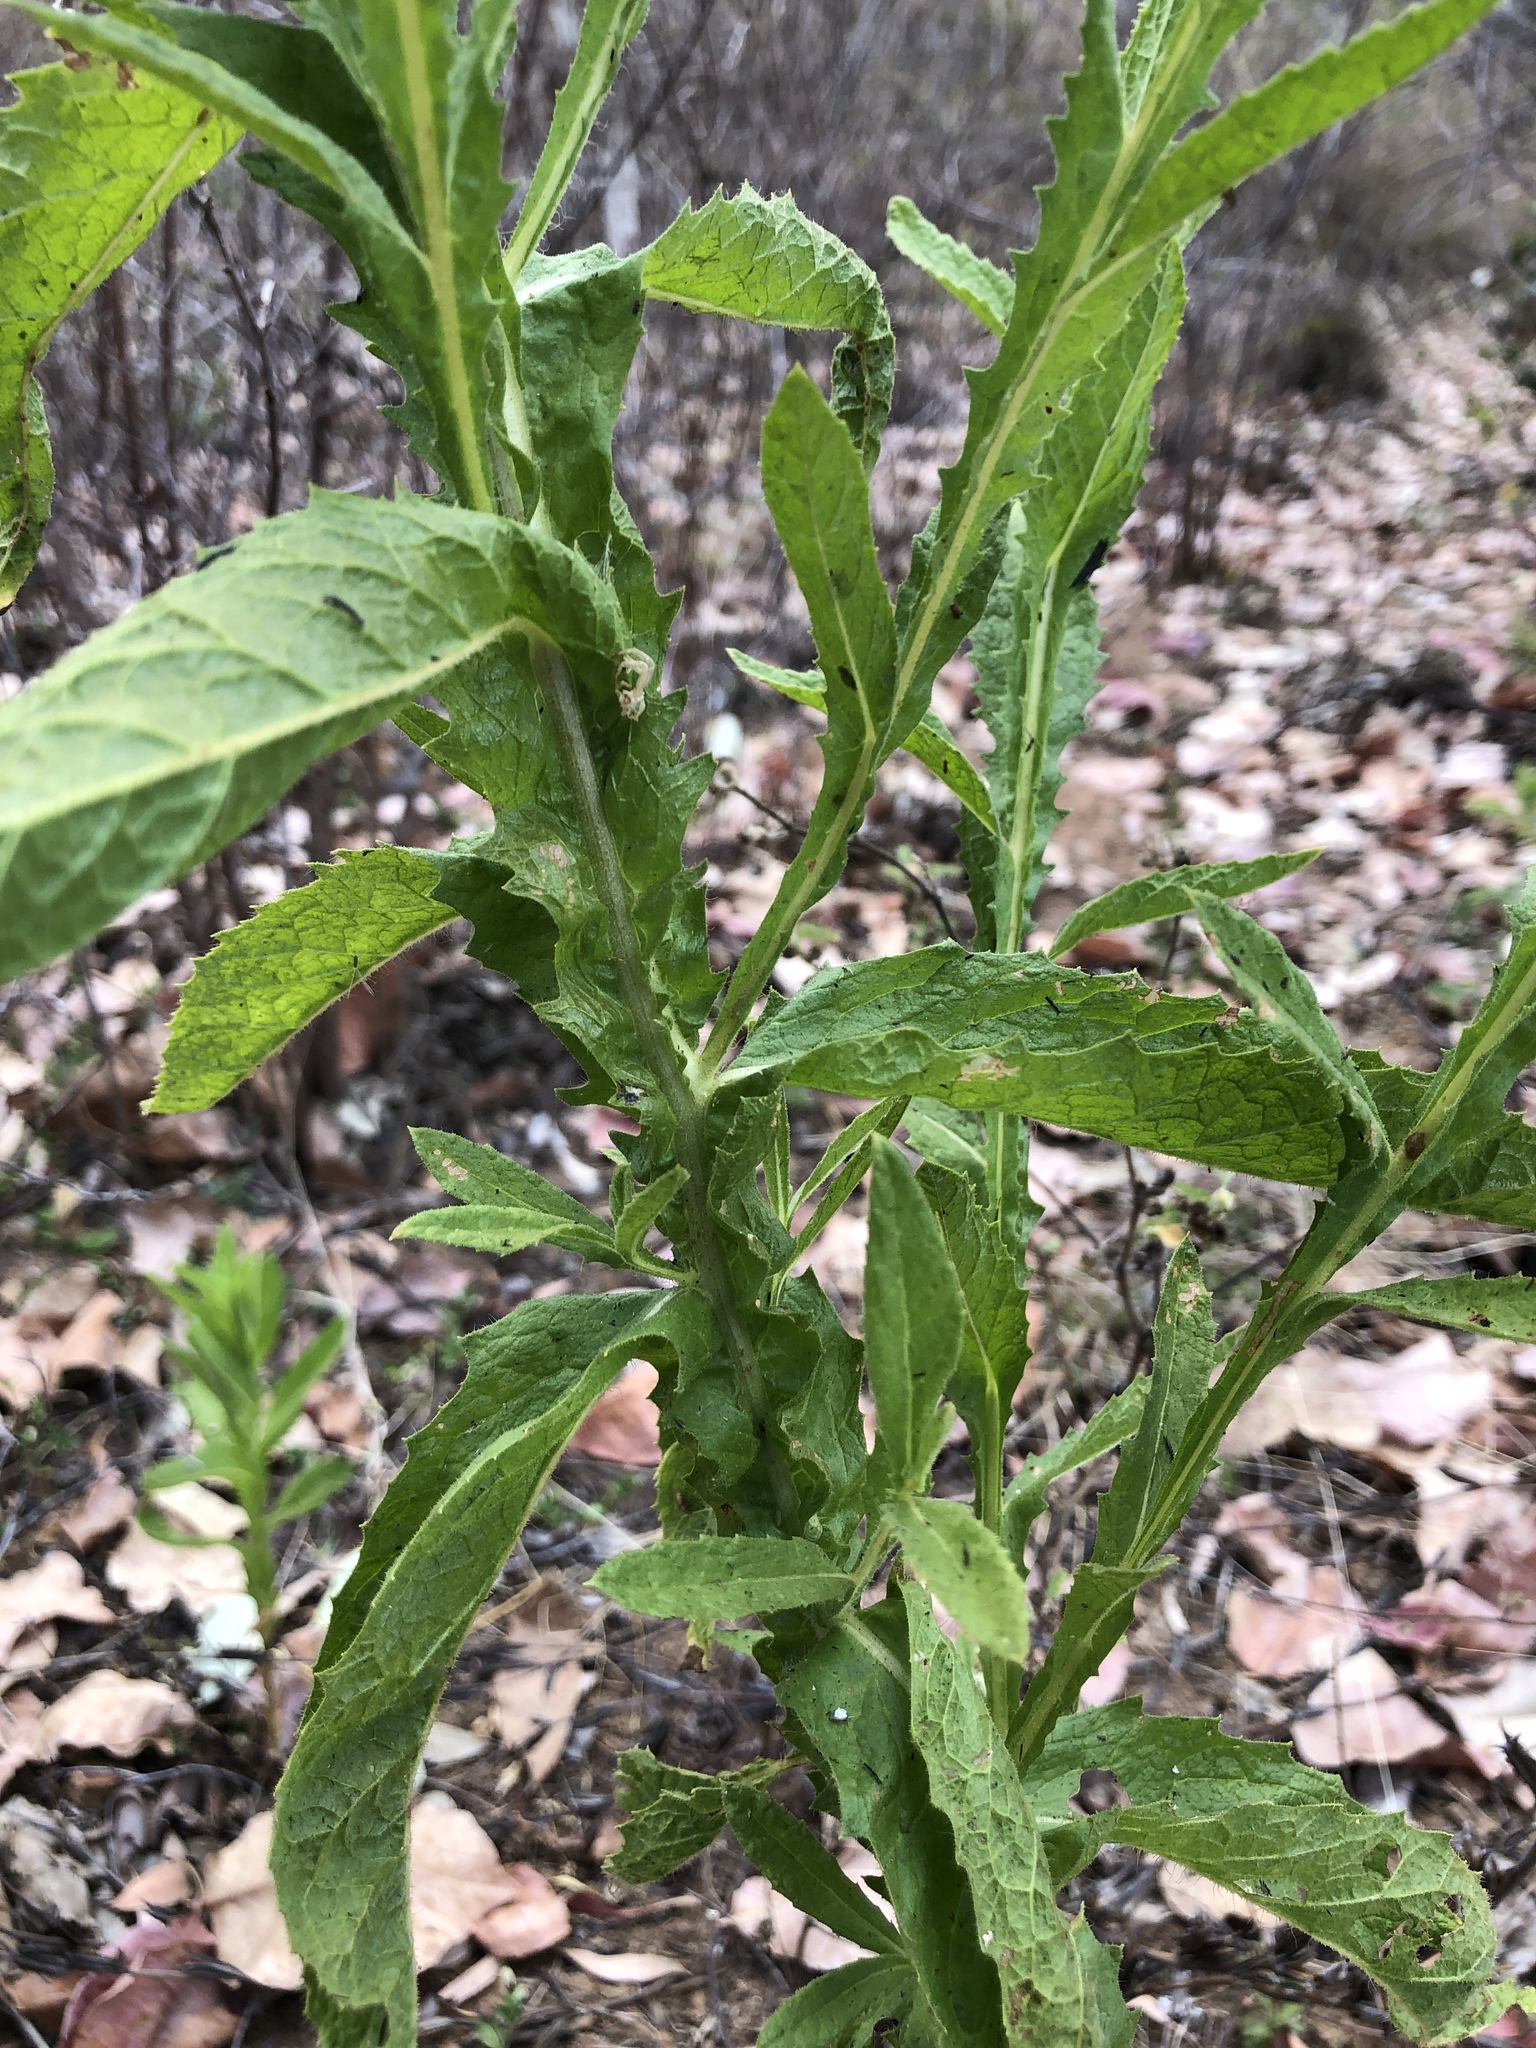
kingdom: Plantae
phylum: Tracheophyta
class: Magnoliopsida
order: Asterales
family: Asteraceae
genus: Pterocaulon
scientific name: Pterocaulon serrulatum
